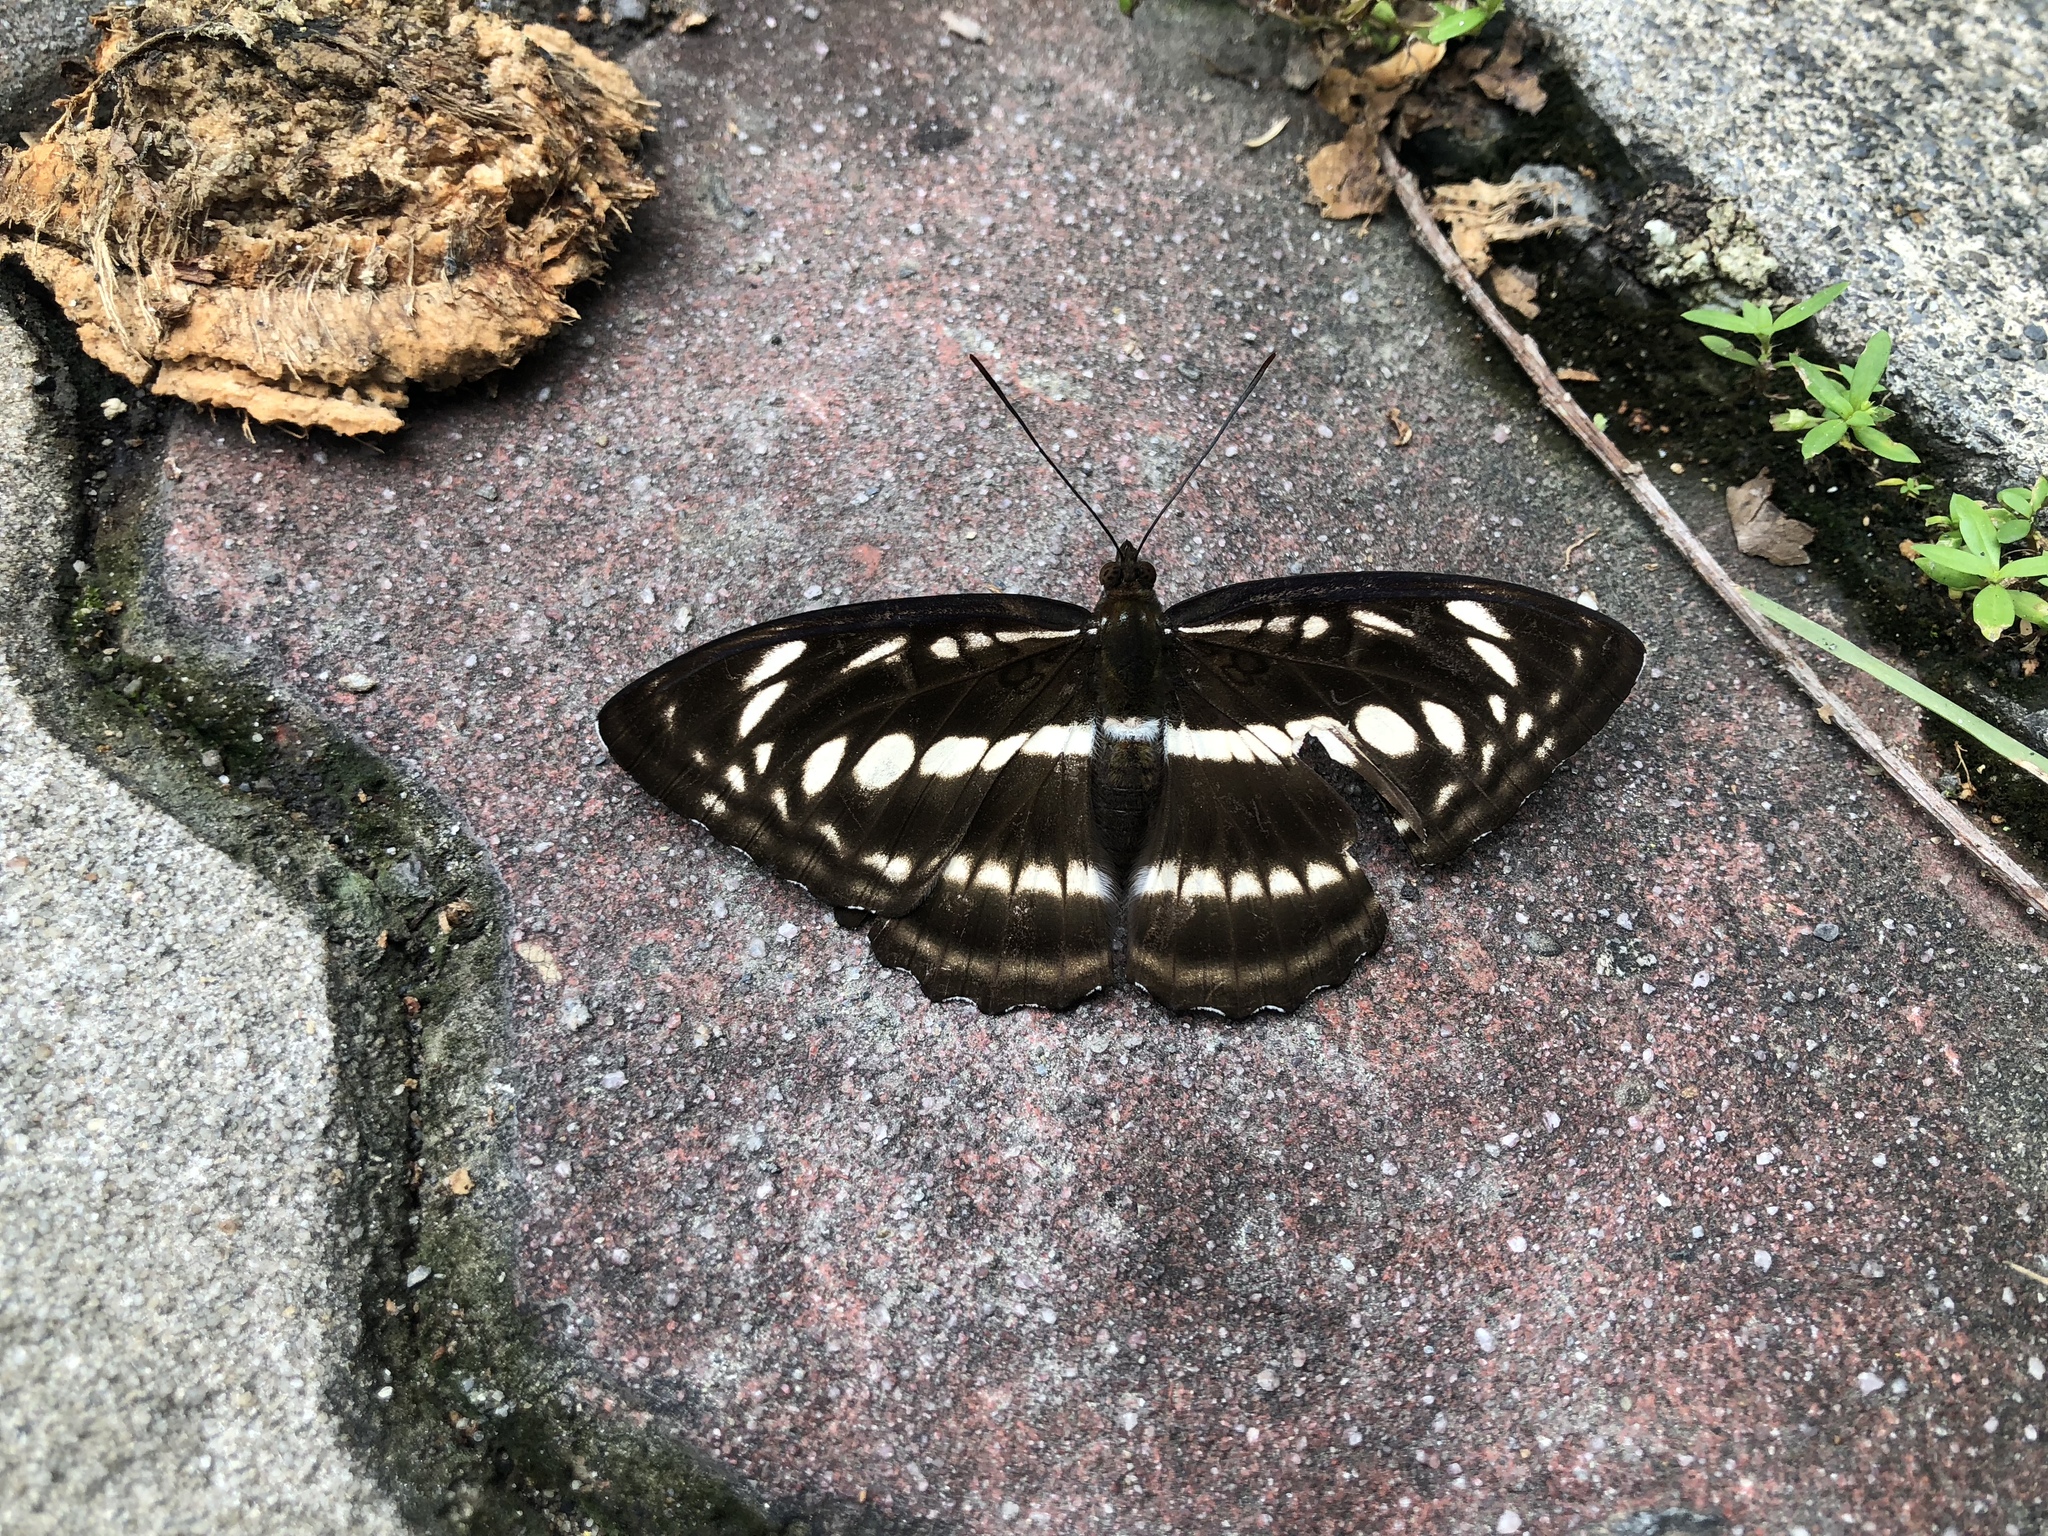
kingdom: Animalia
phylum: Arthropoda
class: Insecta
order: Lepidoptera
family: Nymphalidae
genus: Parathyma
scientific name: Parathyma selenophora
